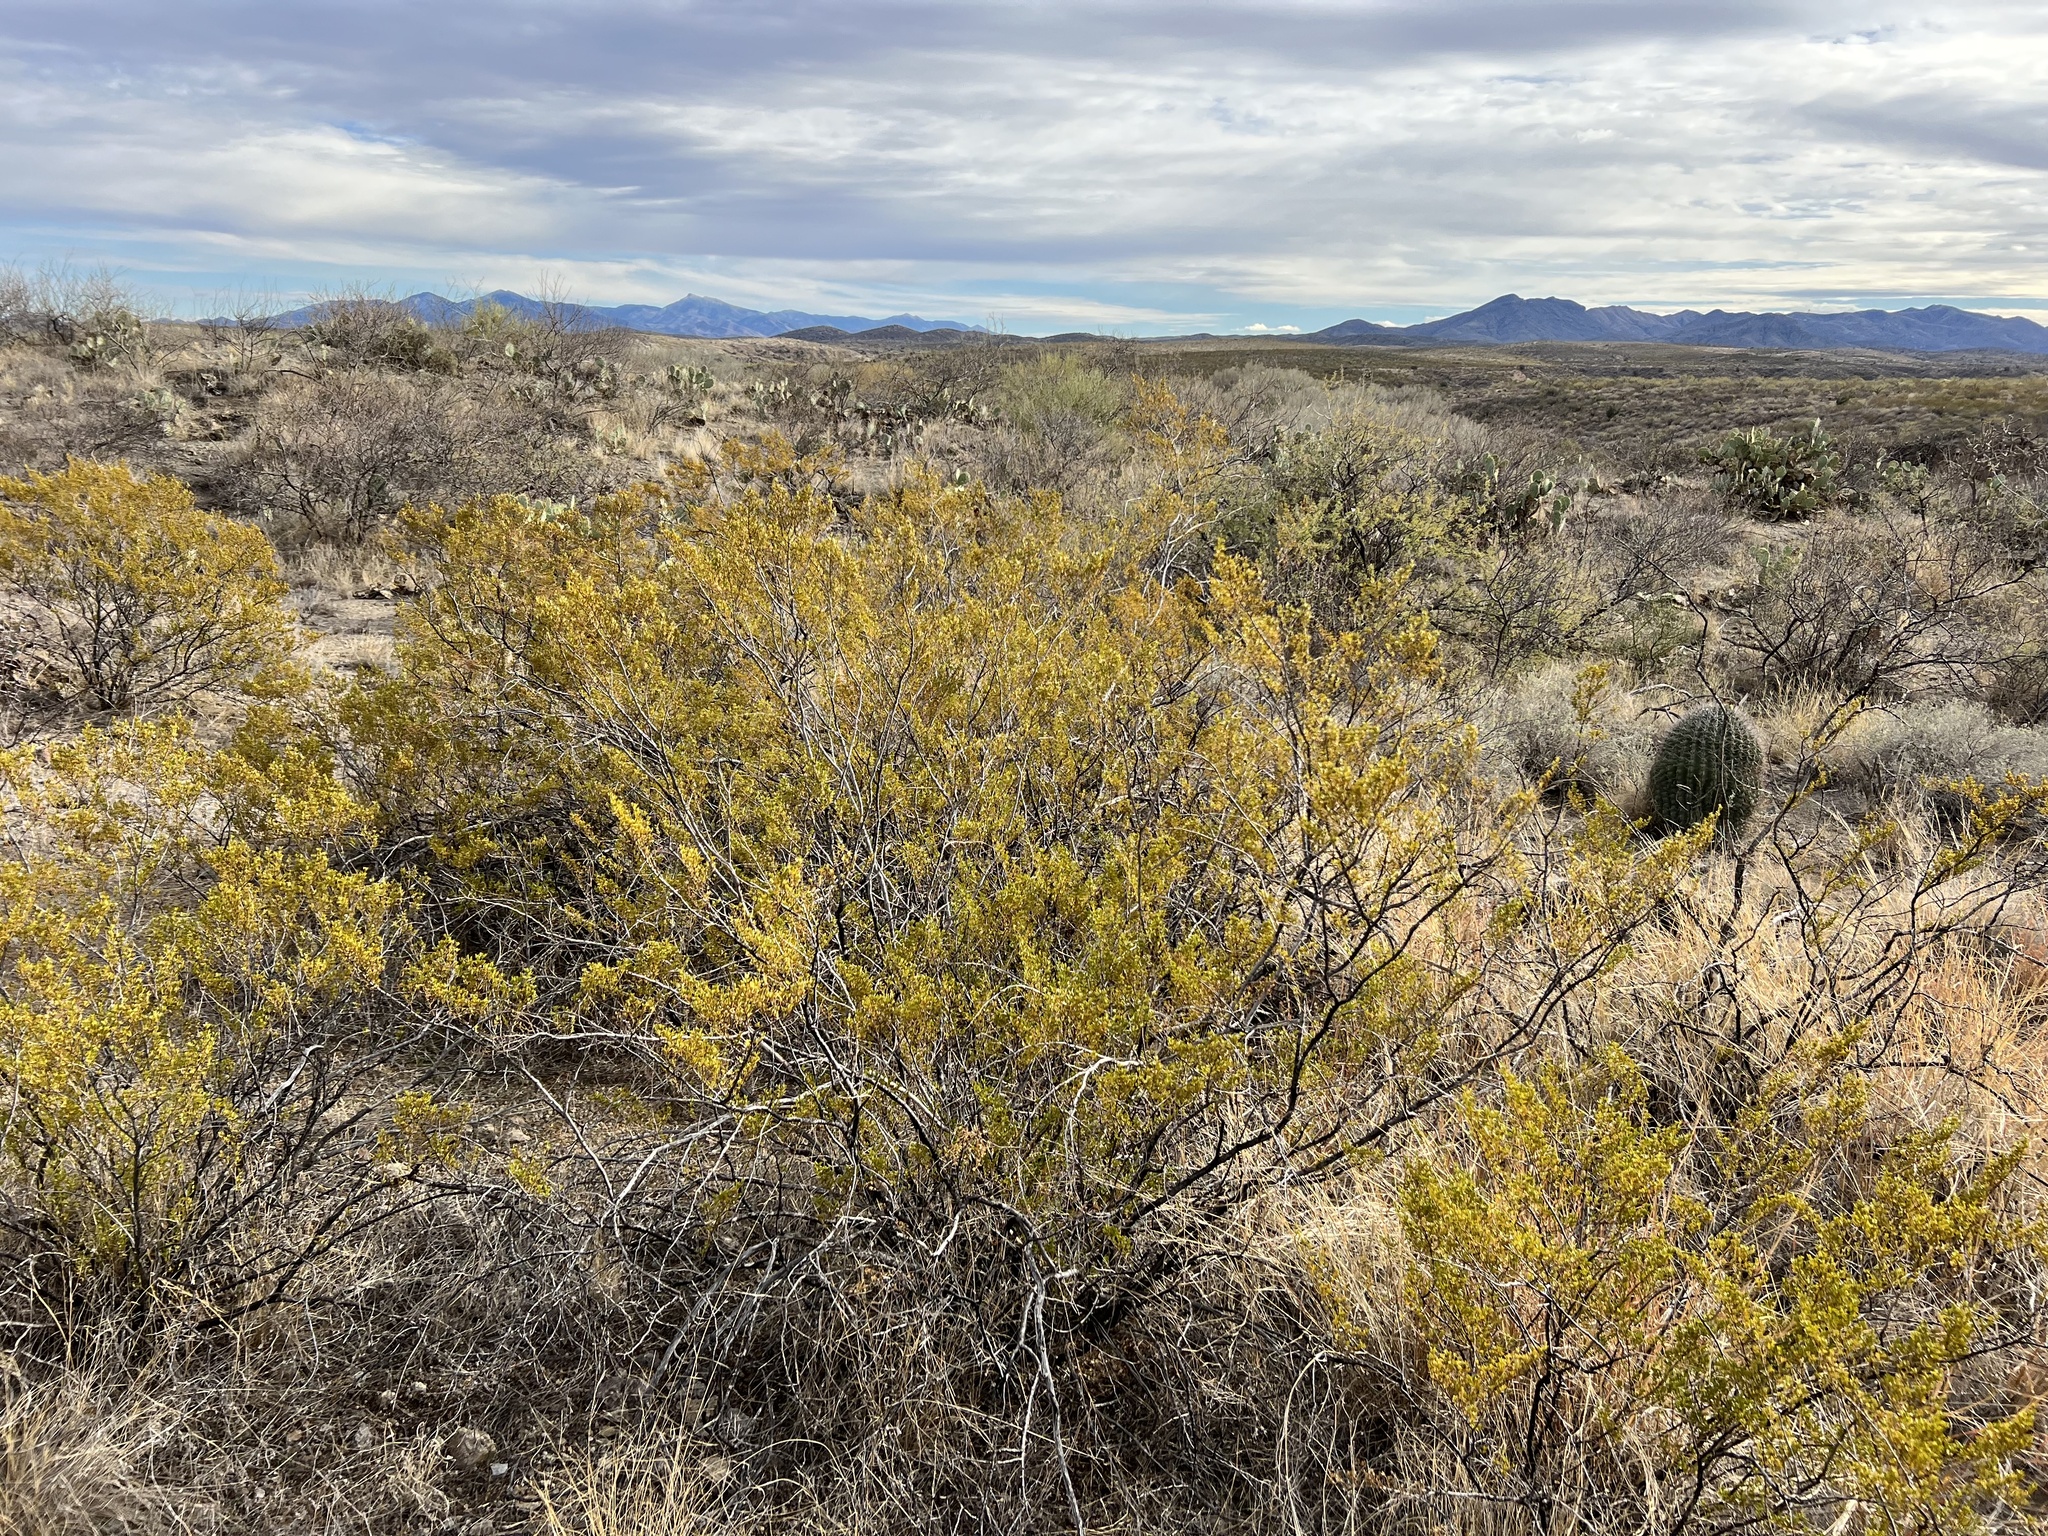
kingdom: Plantae
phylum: Tracheophyta
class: Magnoliopsida
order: Zygophyllales
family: Zygophyllaceae
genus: Larrea
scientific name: Larrea tridentata
